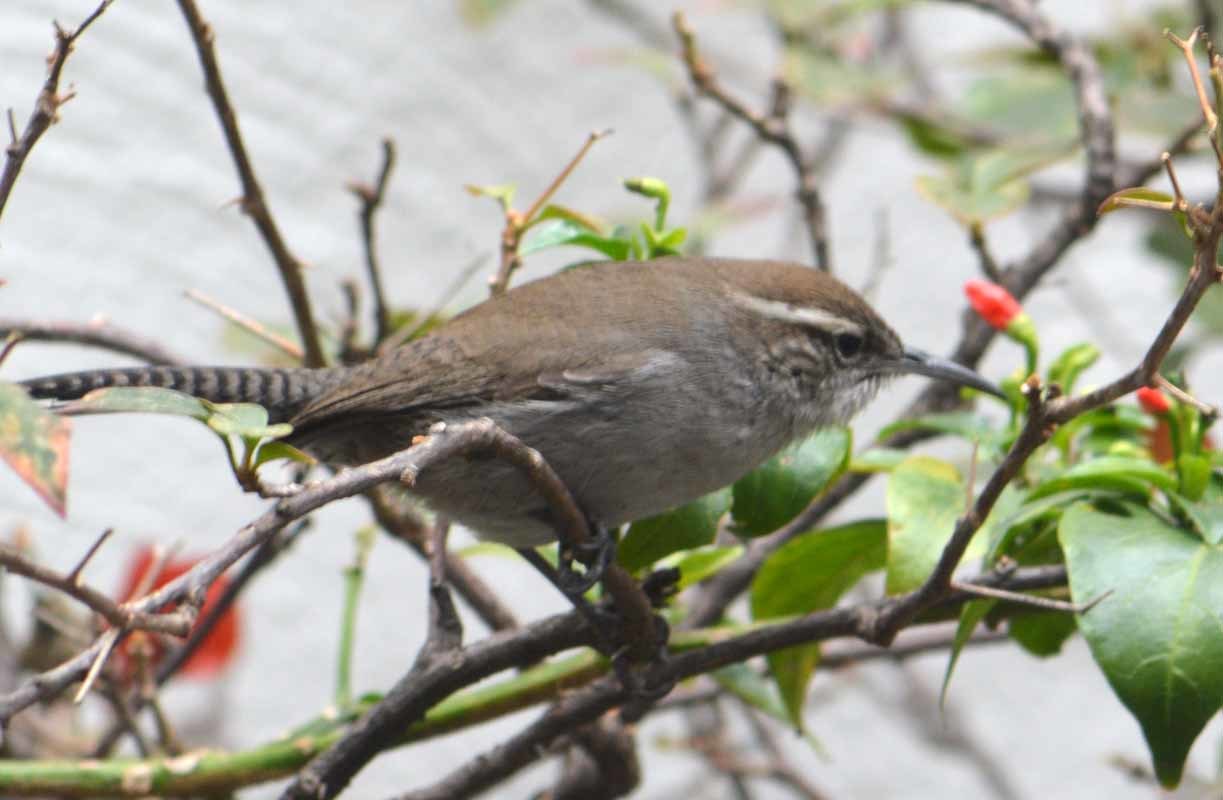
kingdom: Animalia
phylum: Chordata
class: Aves
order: Passeriformes
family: Troglodytidae
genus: Thryomanes
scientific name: Thryomanes bewickii
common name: Bewick's wren
